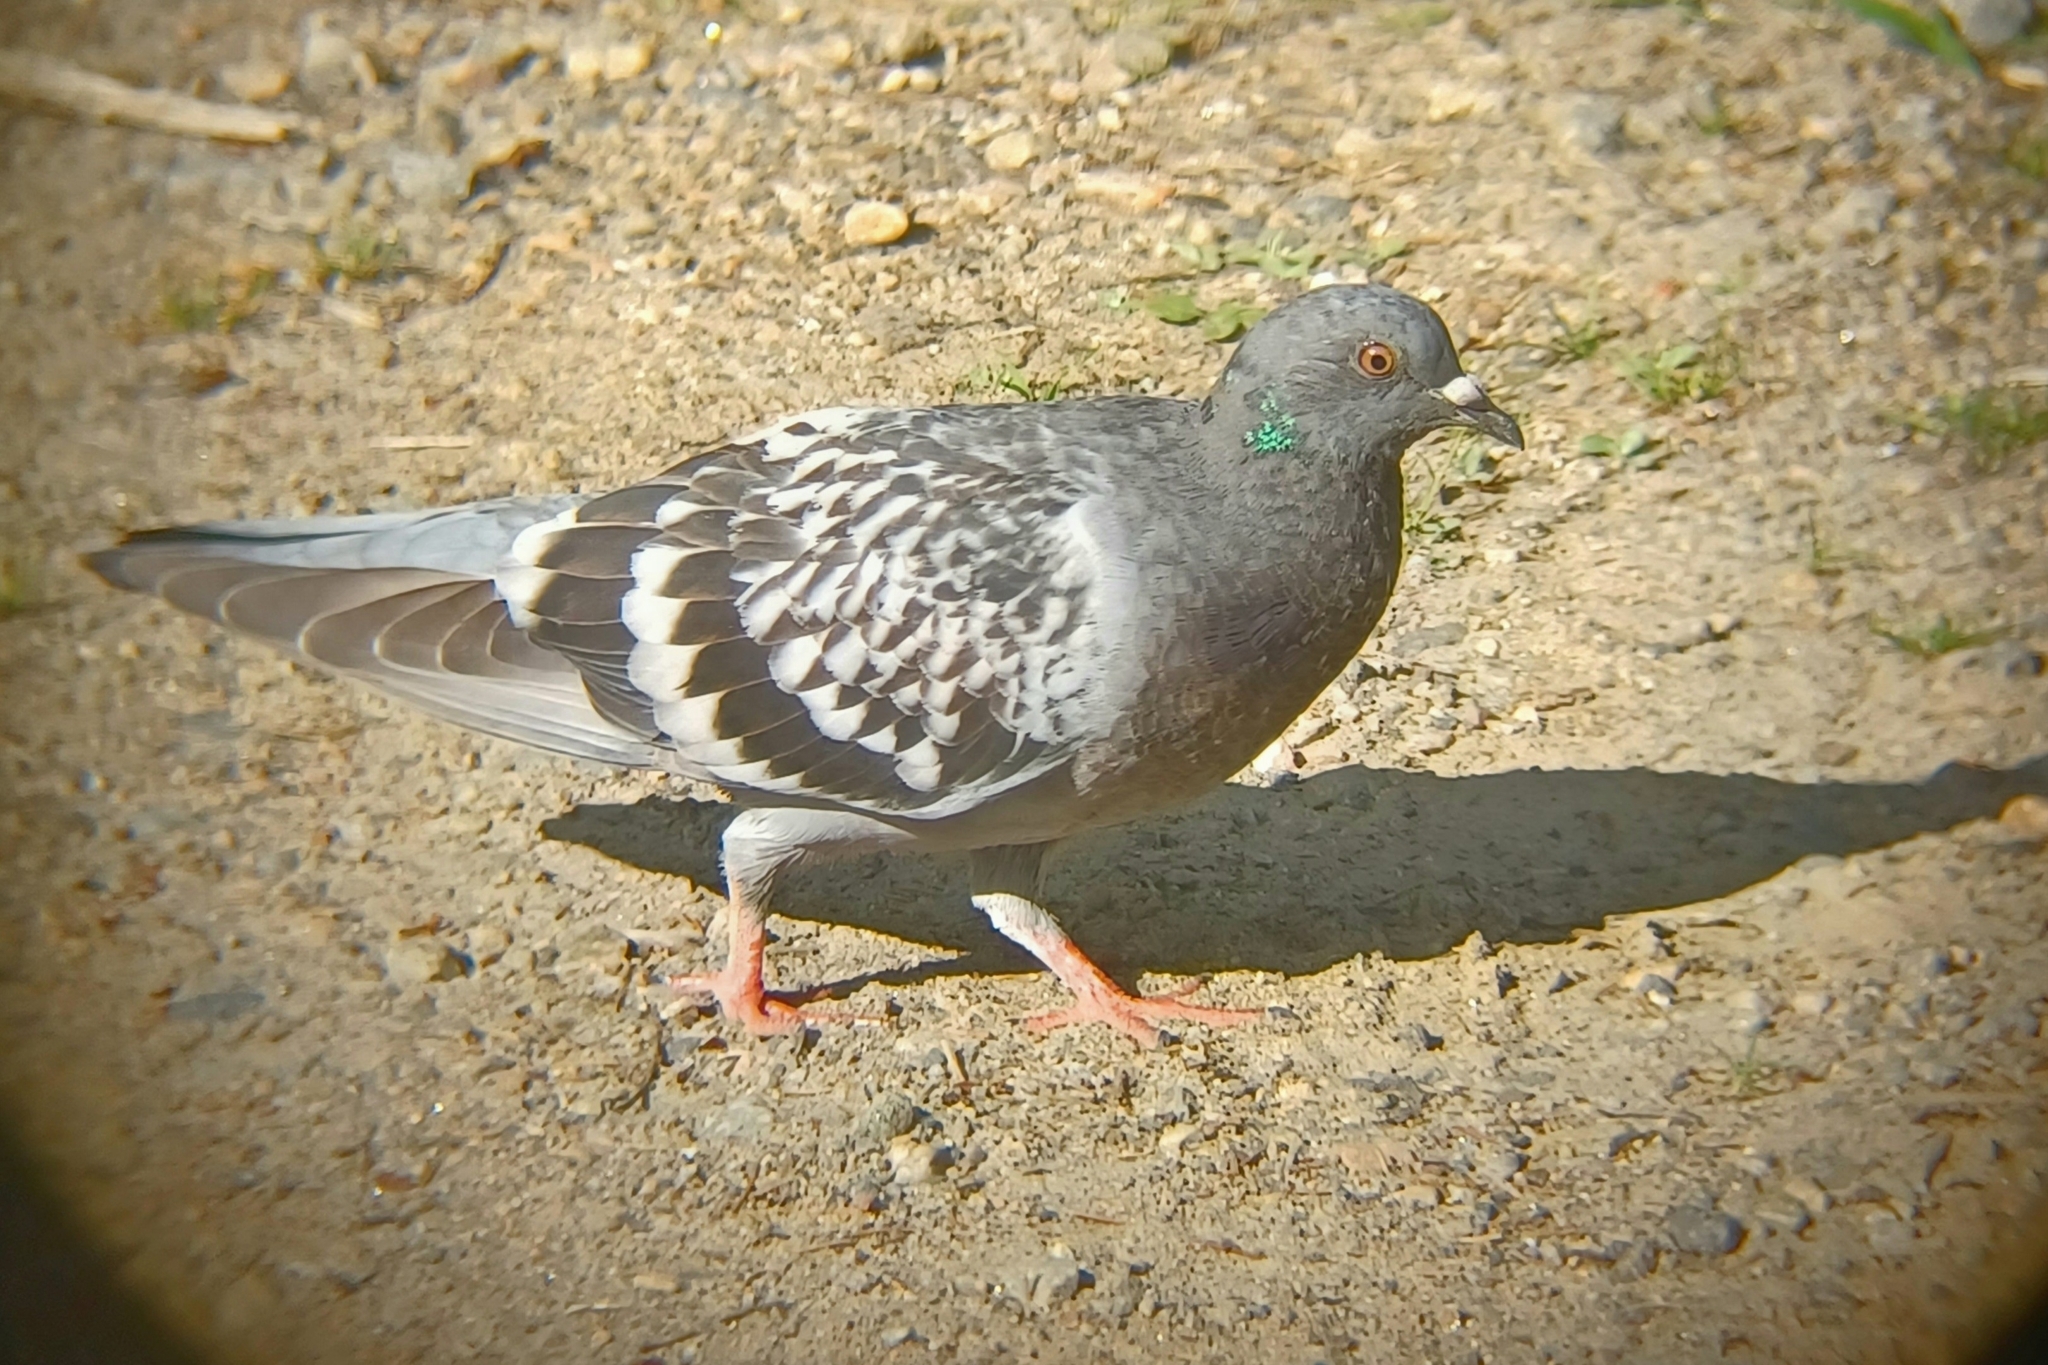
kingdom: Animalia
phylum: Chordata
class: Aves
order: Columbiformes
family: Columbidae
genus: Columba
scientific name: Columba livia
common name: Rock pigeon
